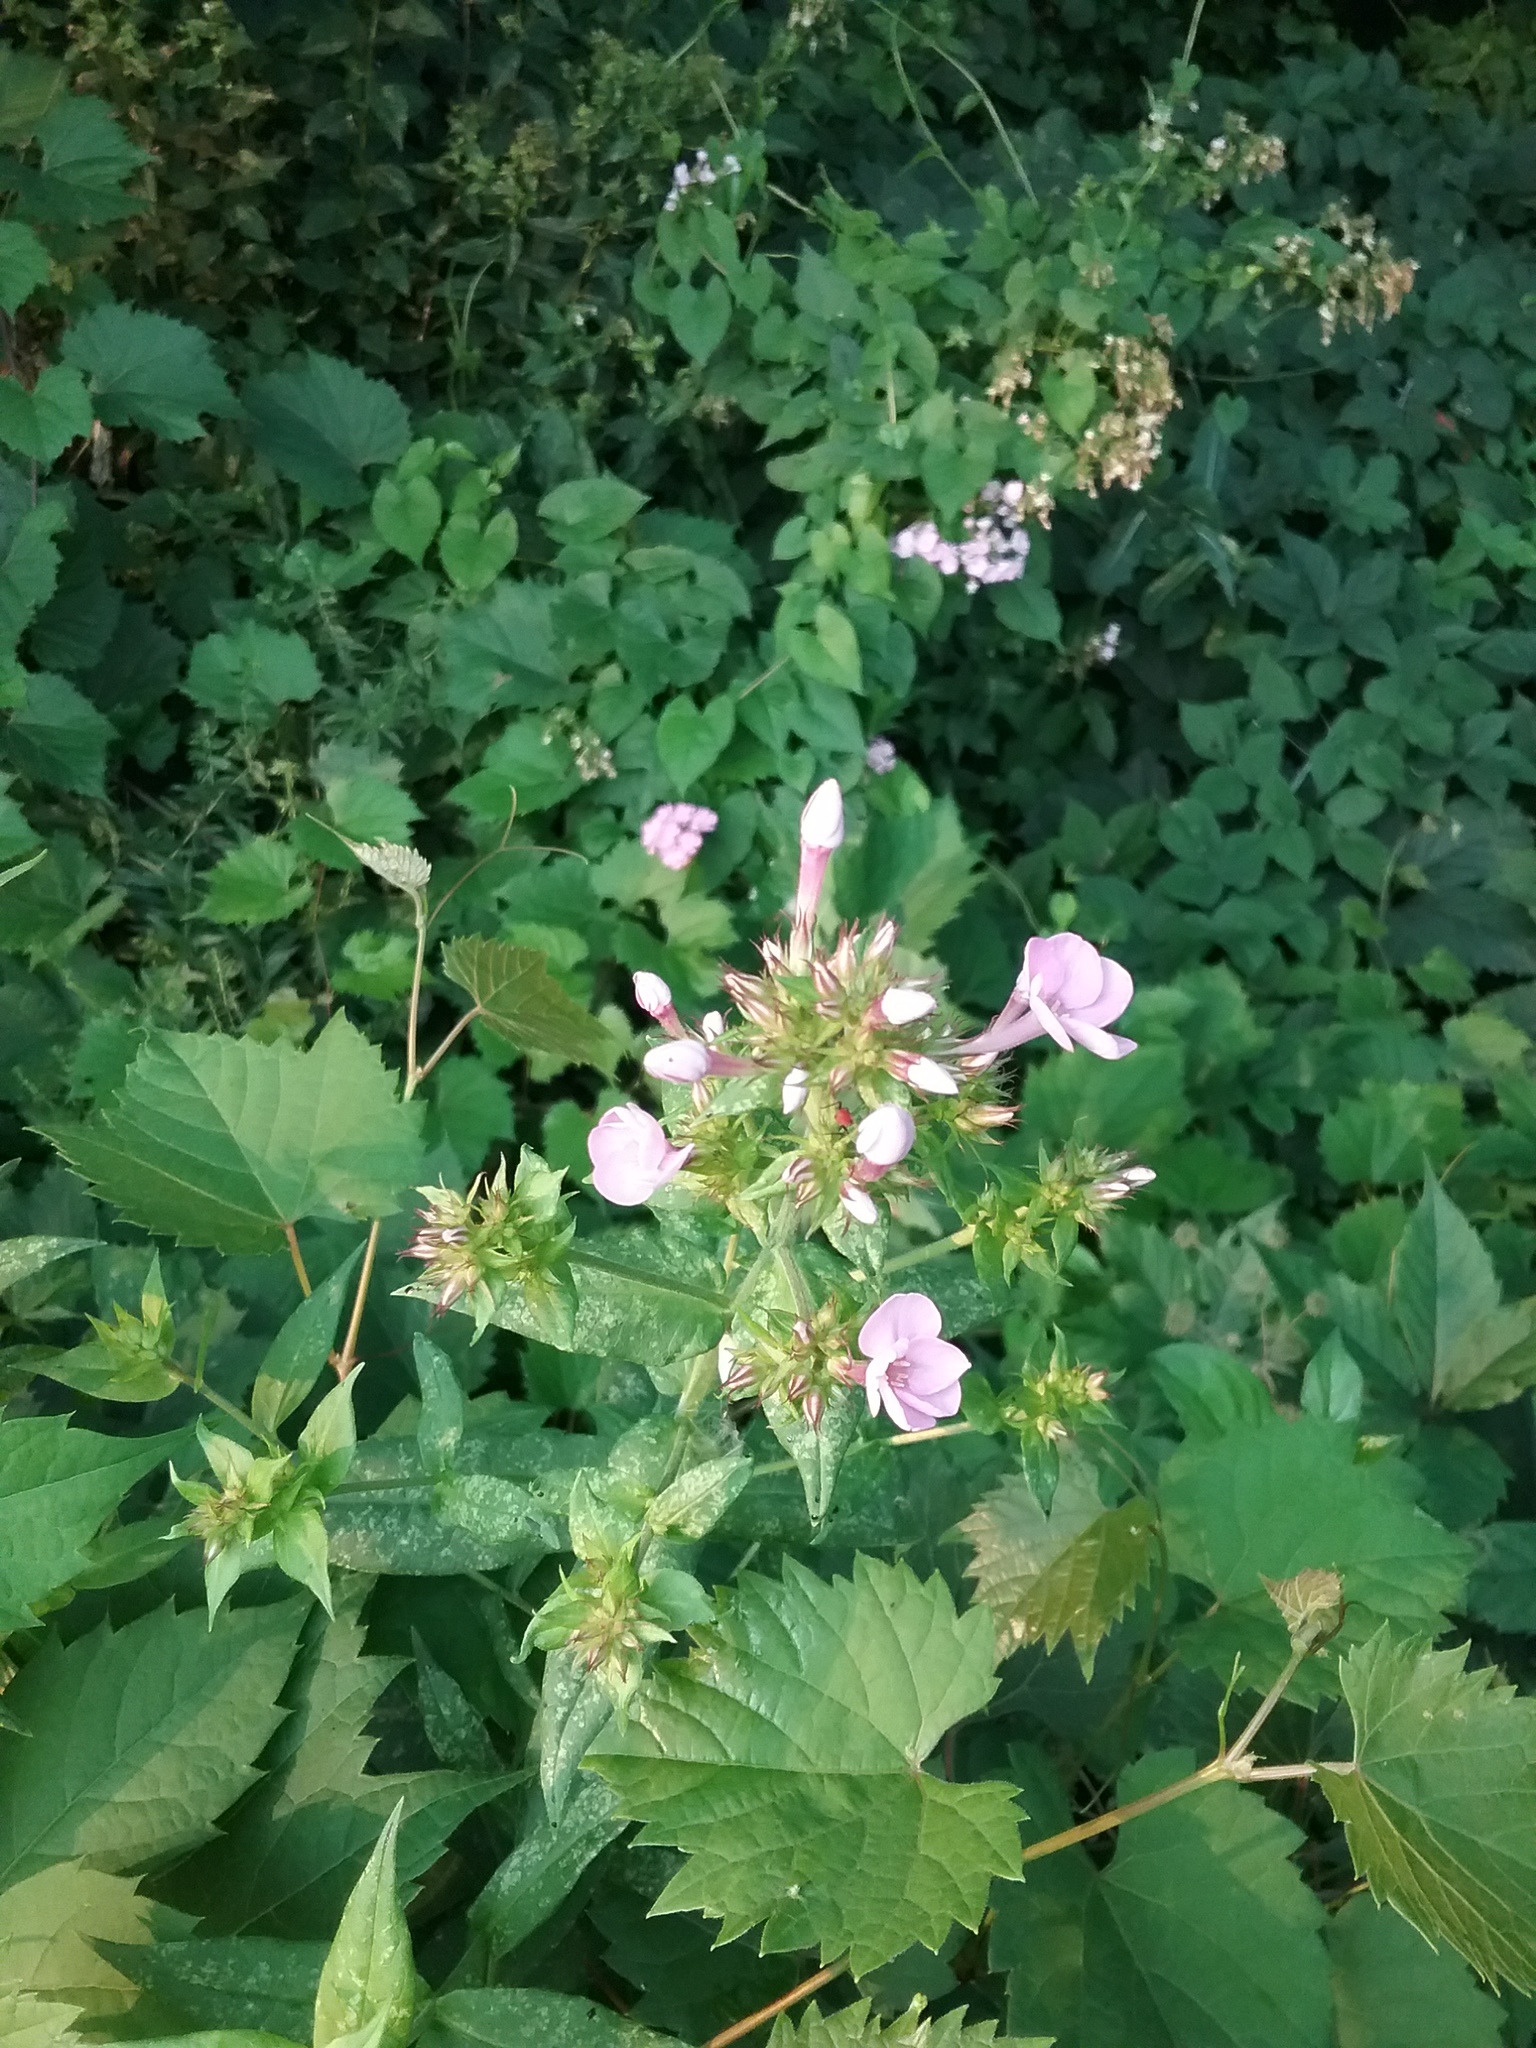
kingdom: Plantae
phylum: Tracheophyta
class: Magnoliopsida
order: Ericales
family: Polemoniaceae
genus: Phlox
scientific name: Phlox paniculata
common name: Fall phlox
